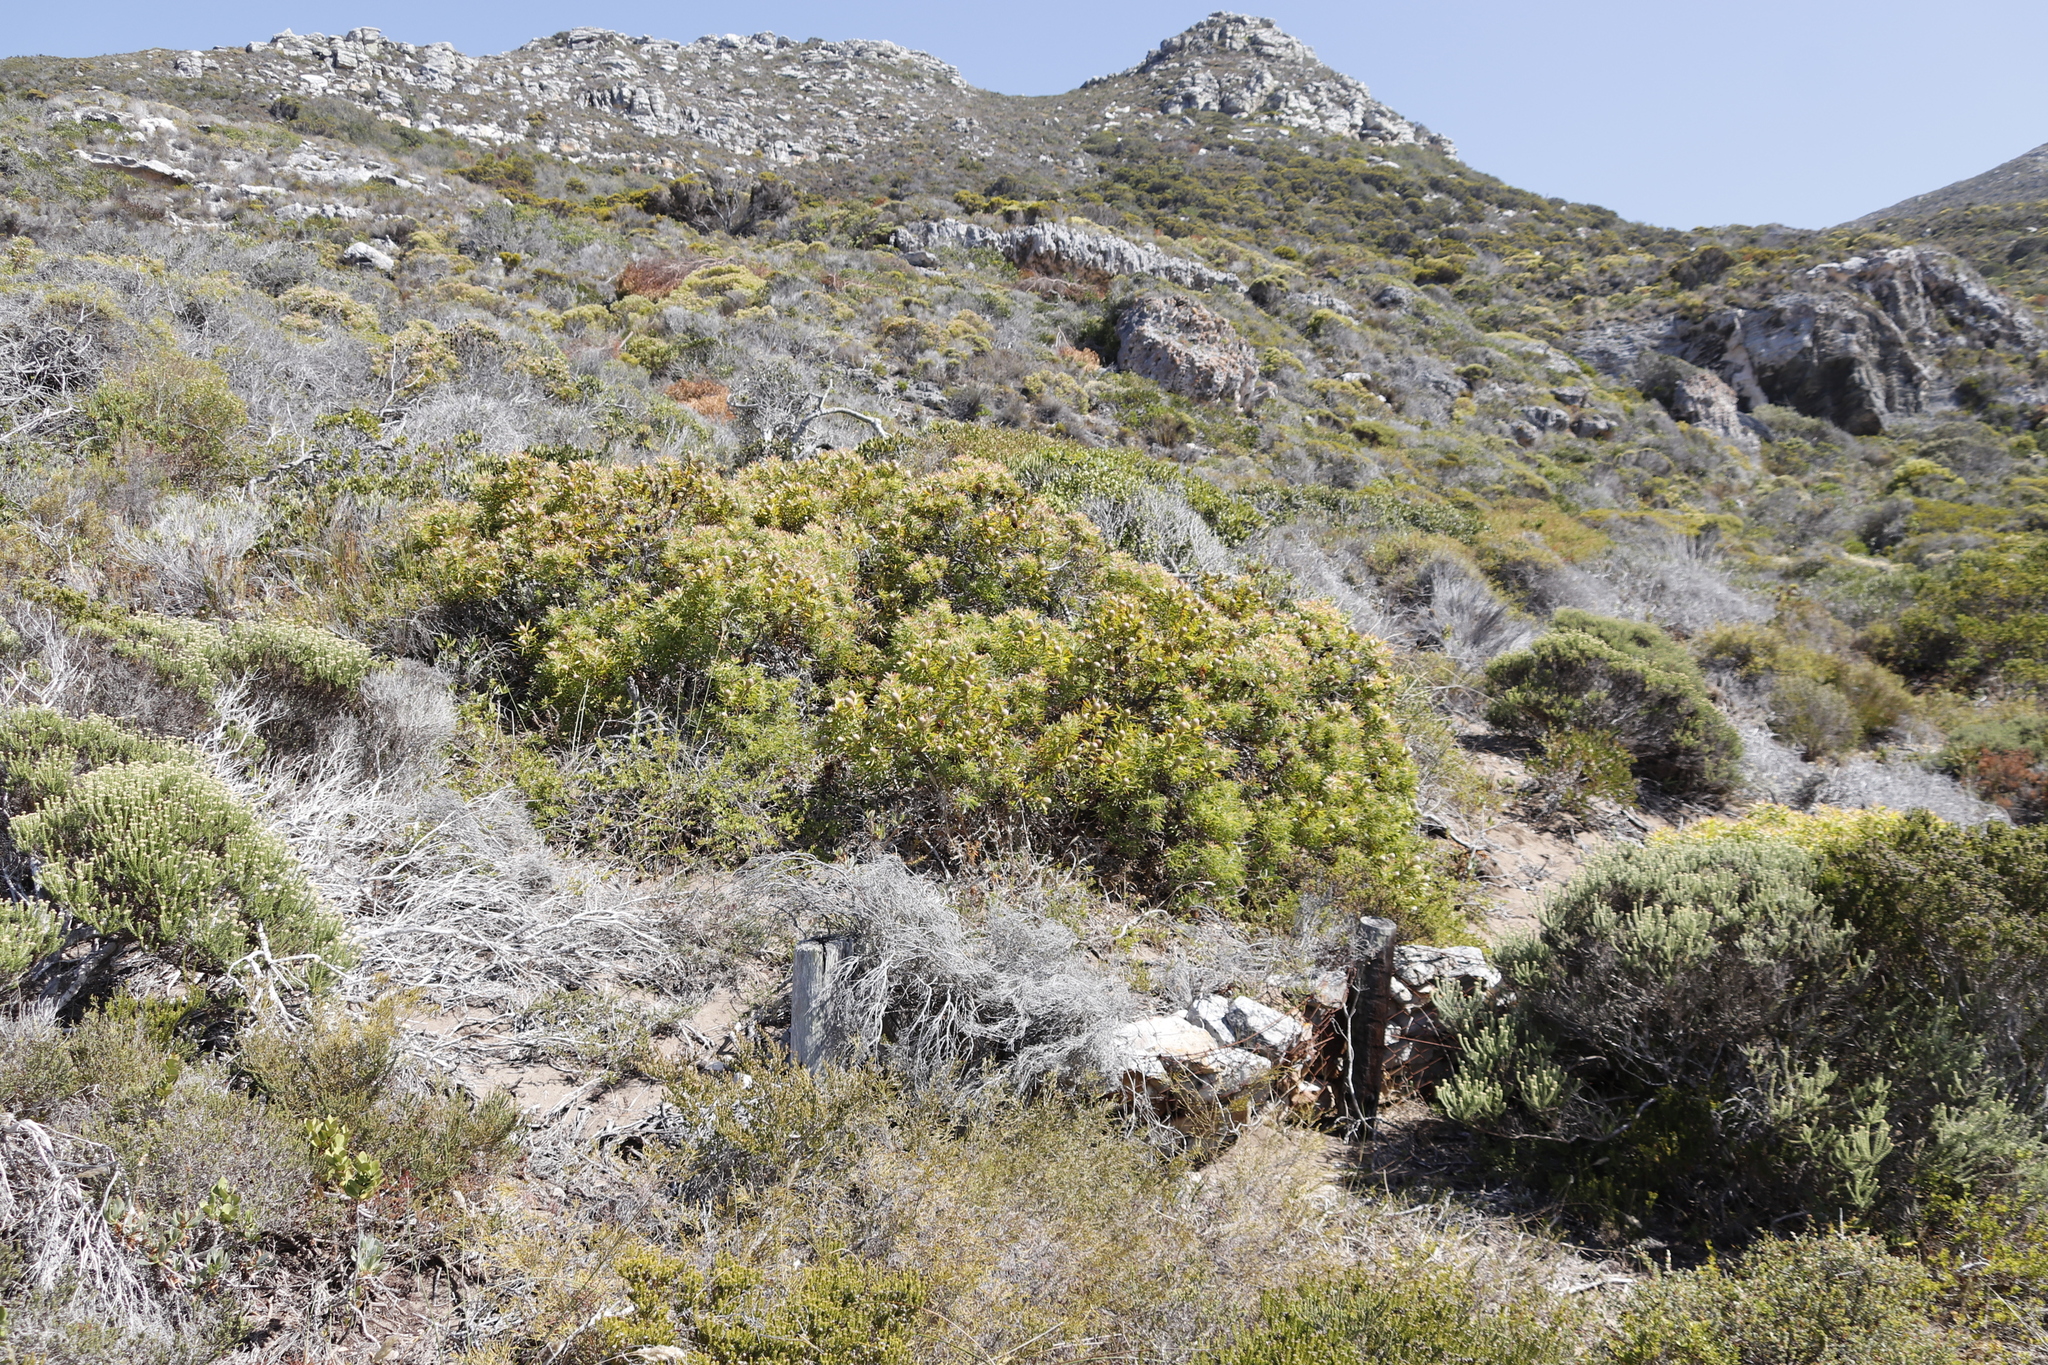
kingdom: Plantae
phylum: Tracheophyta
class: Magnoliopsida
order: Proteales
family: Proteaceae
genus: Leucadendron
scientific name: Leucadendron coniferum
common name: Dune conebush
